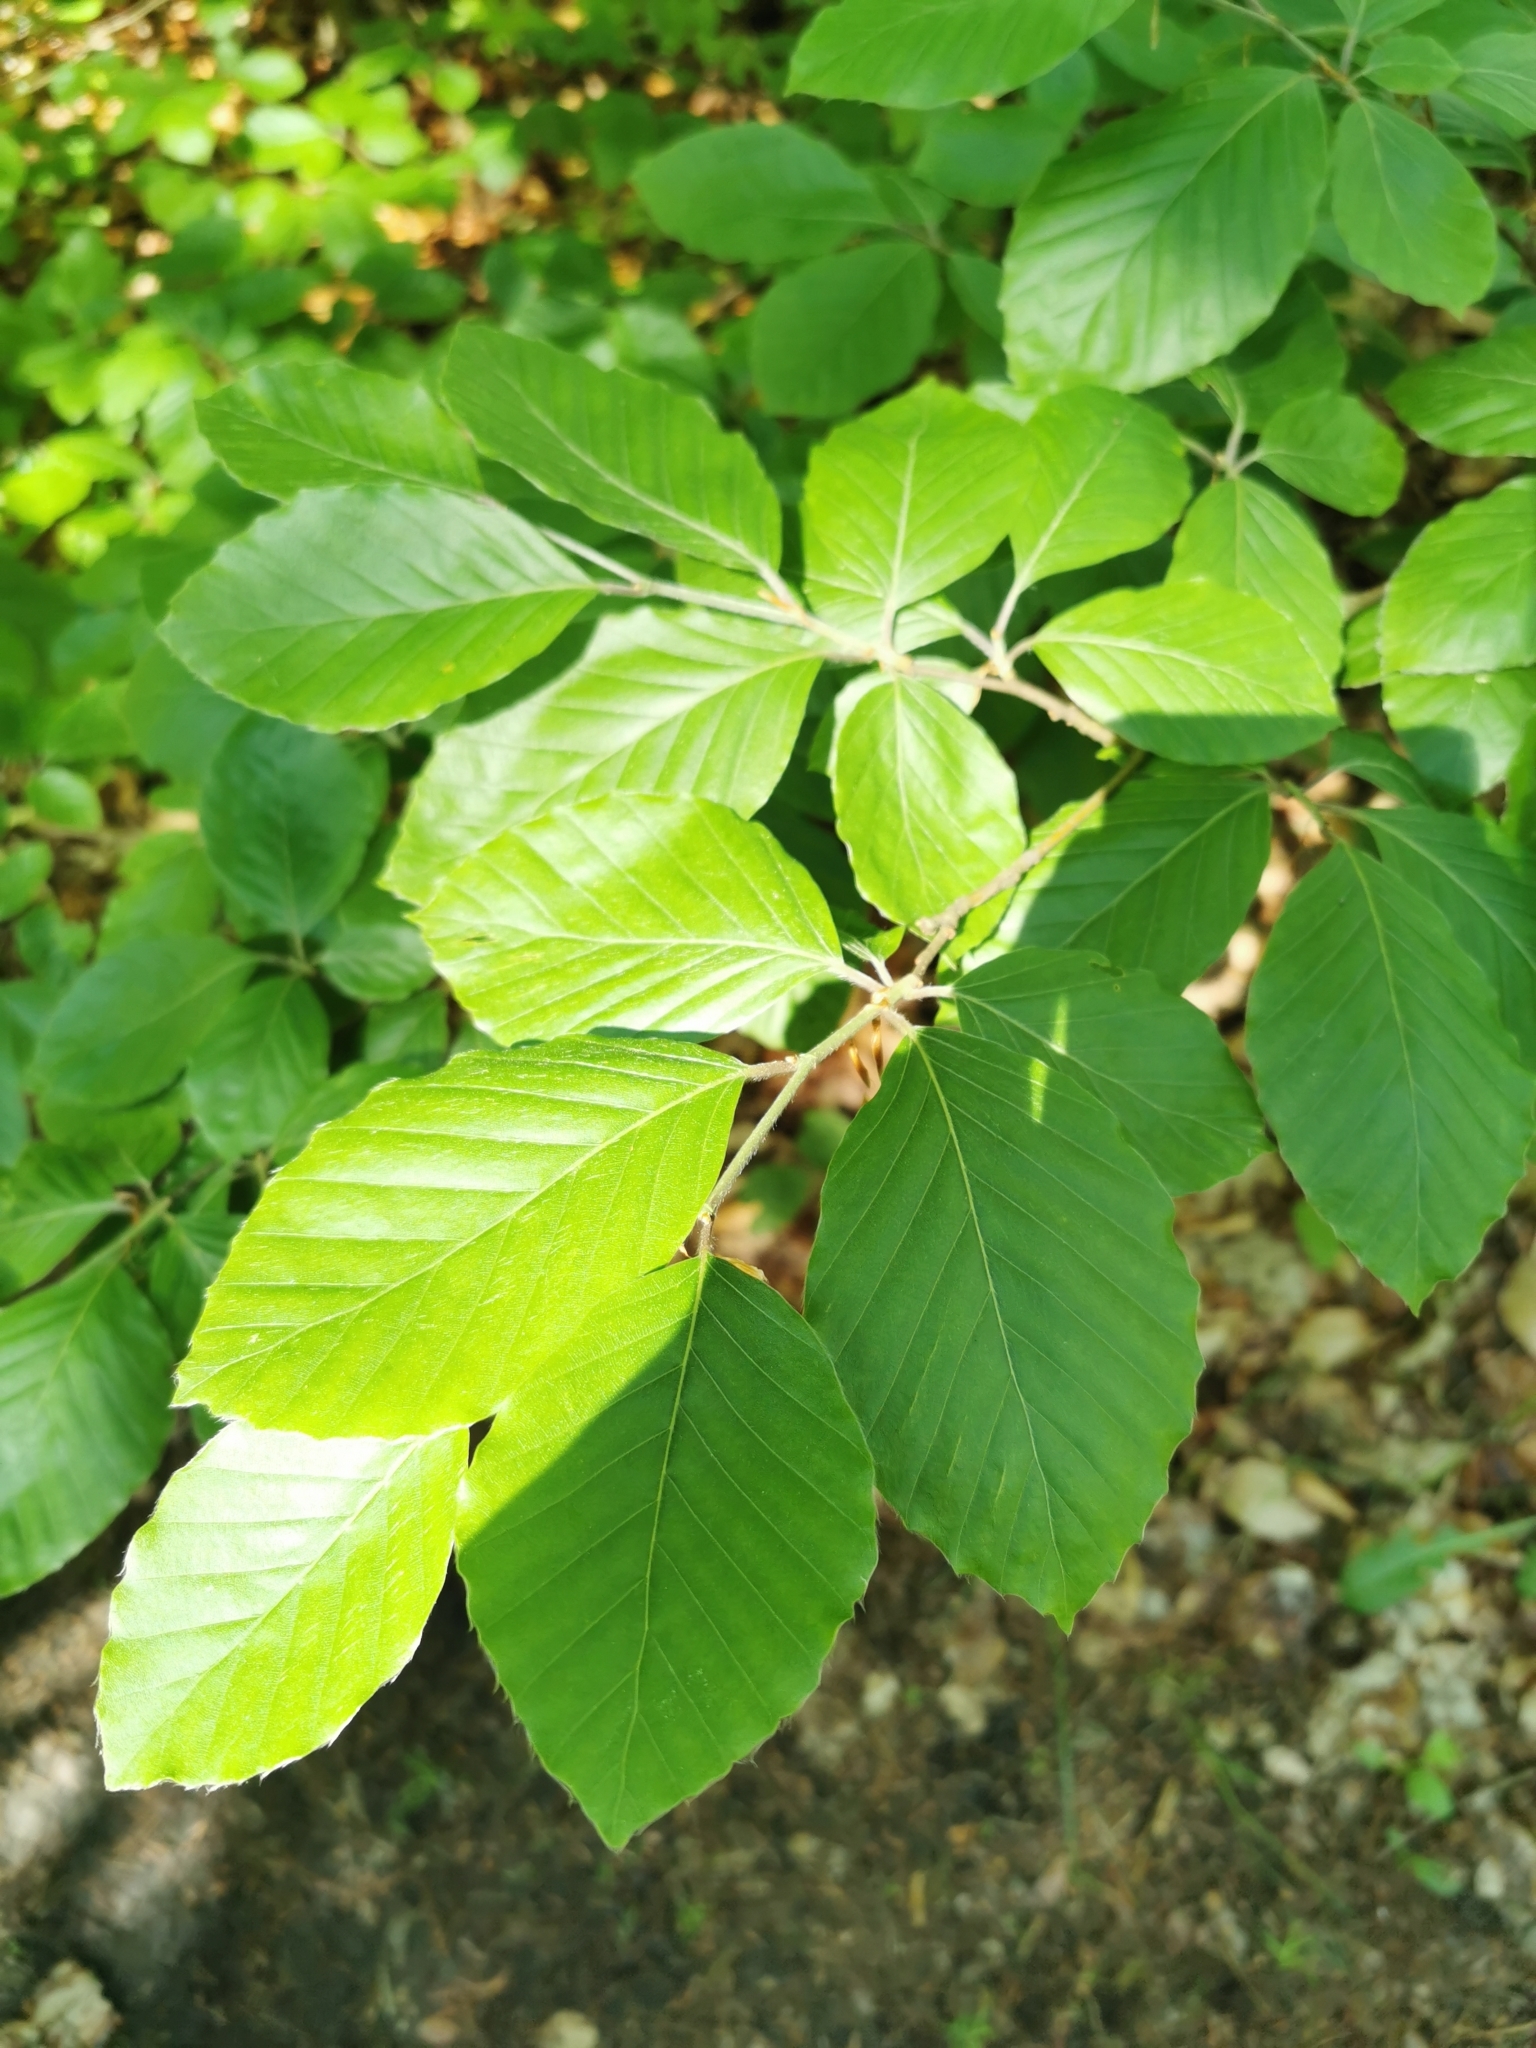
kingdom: Plantae
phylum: Tracheophyta
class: Magnoliopsida
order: Fagales
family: Fagaceae
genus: Fagus
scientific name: Fagus sylvatica
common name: Beech
